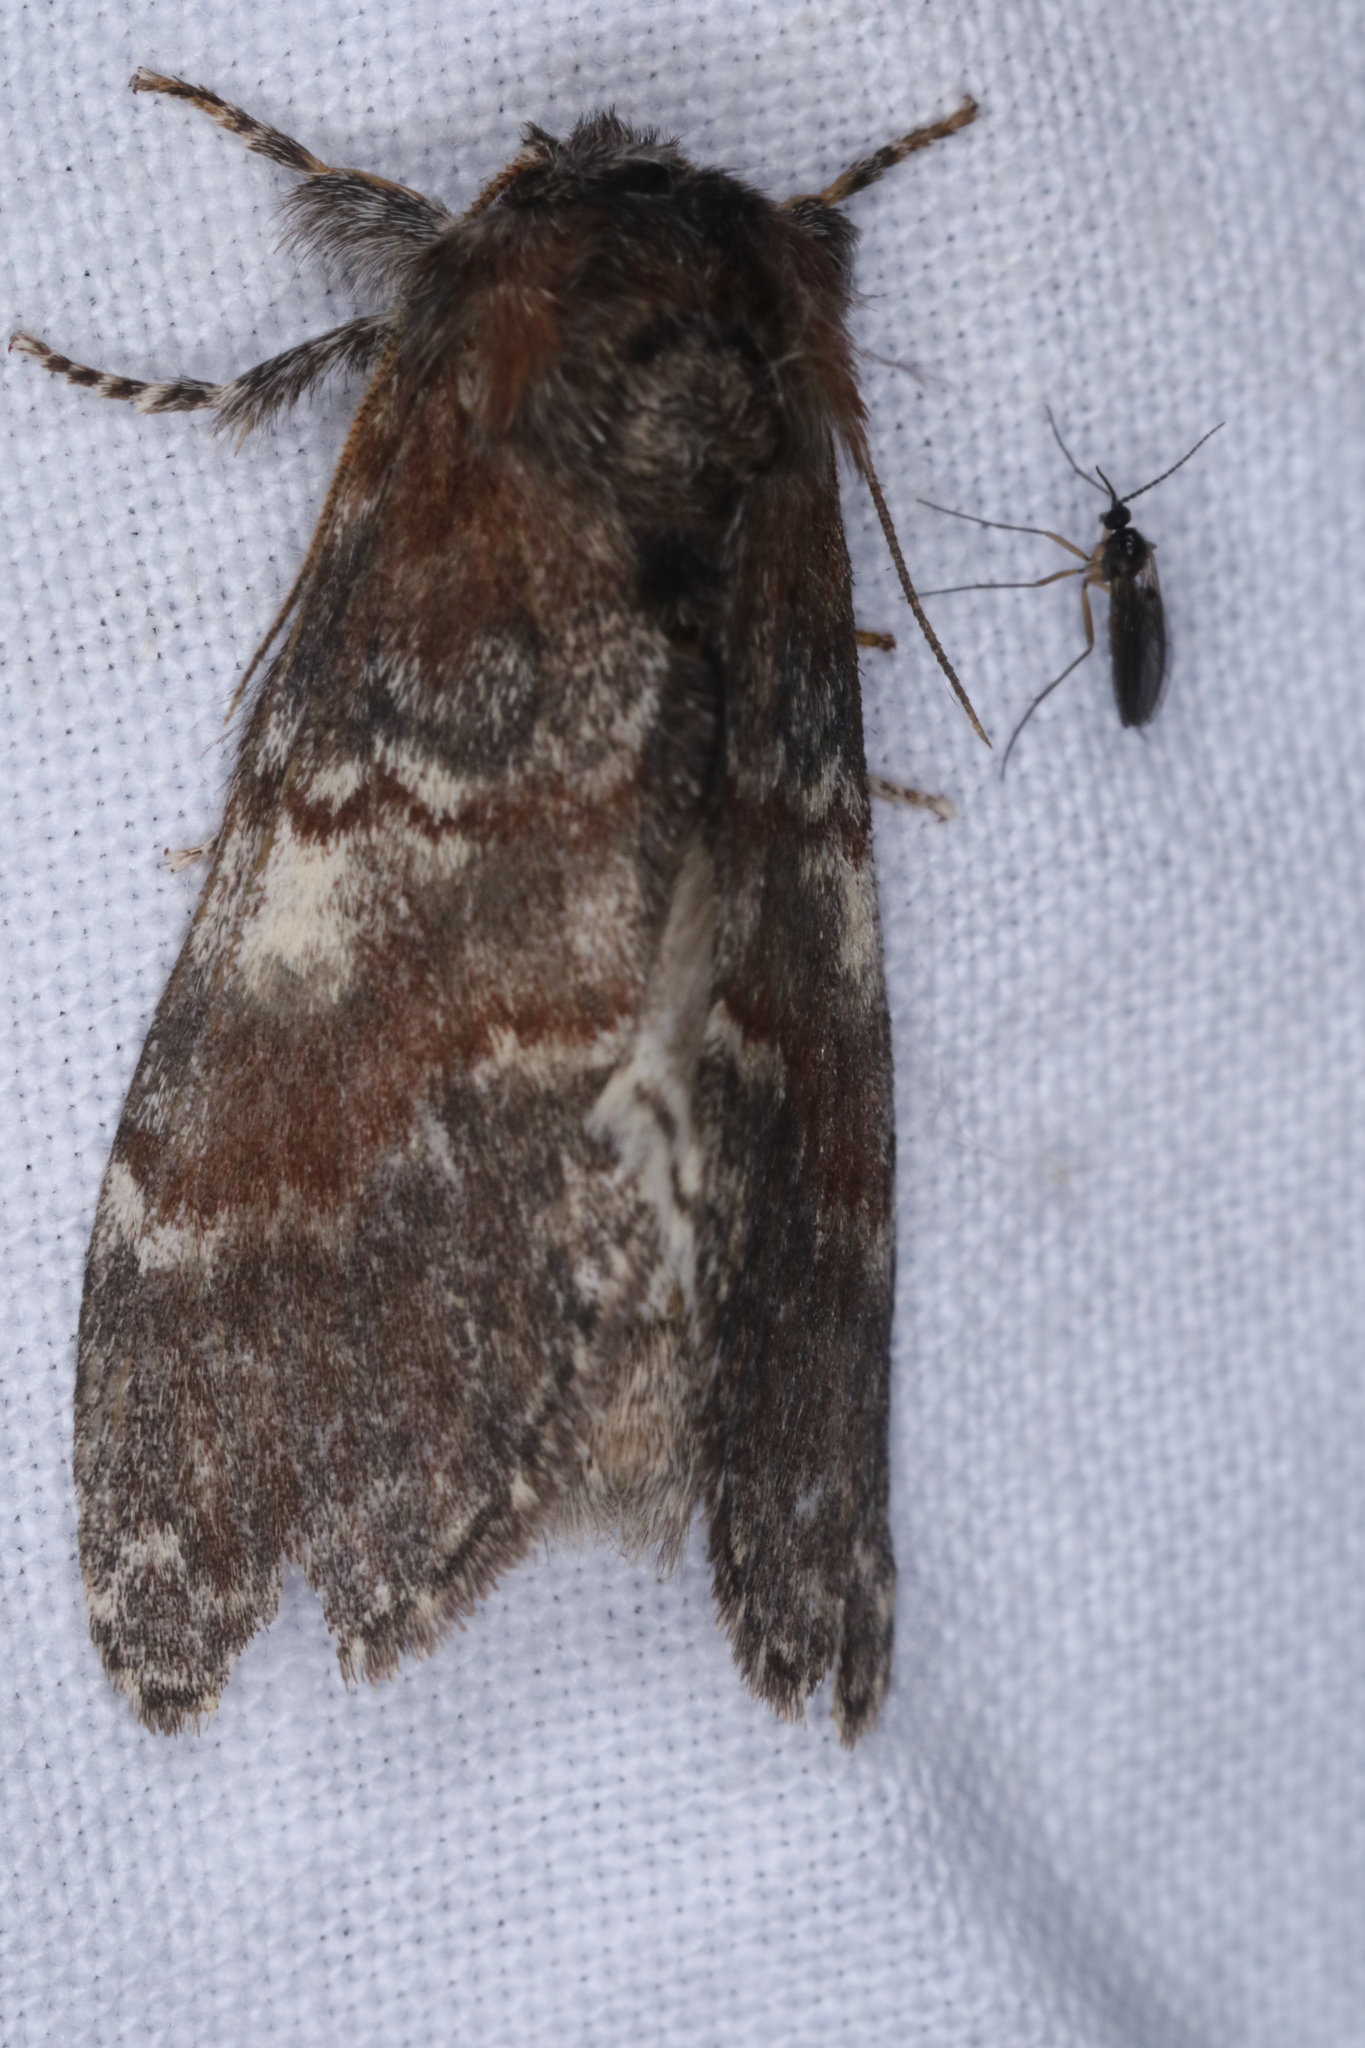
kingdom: Animalia
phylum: Arthropoda
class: Insecta
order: Lepidoptera
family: Notodontidae
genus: Peridea
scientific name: Peridea ferruginea
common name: Chocolate prominent
